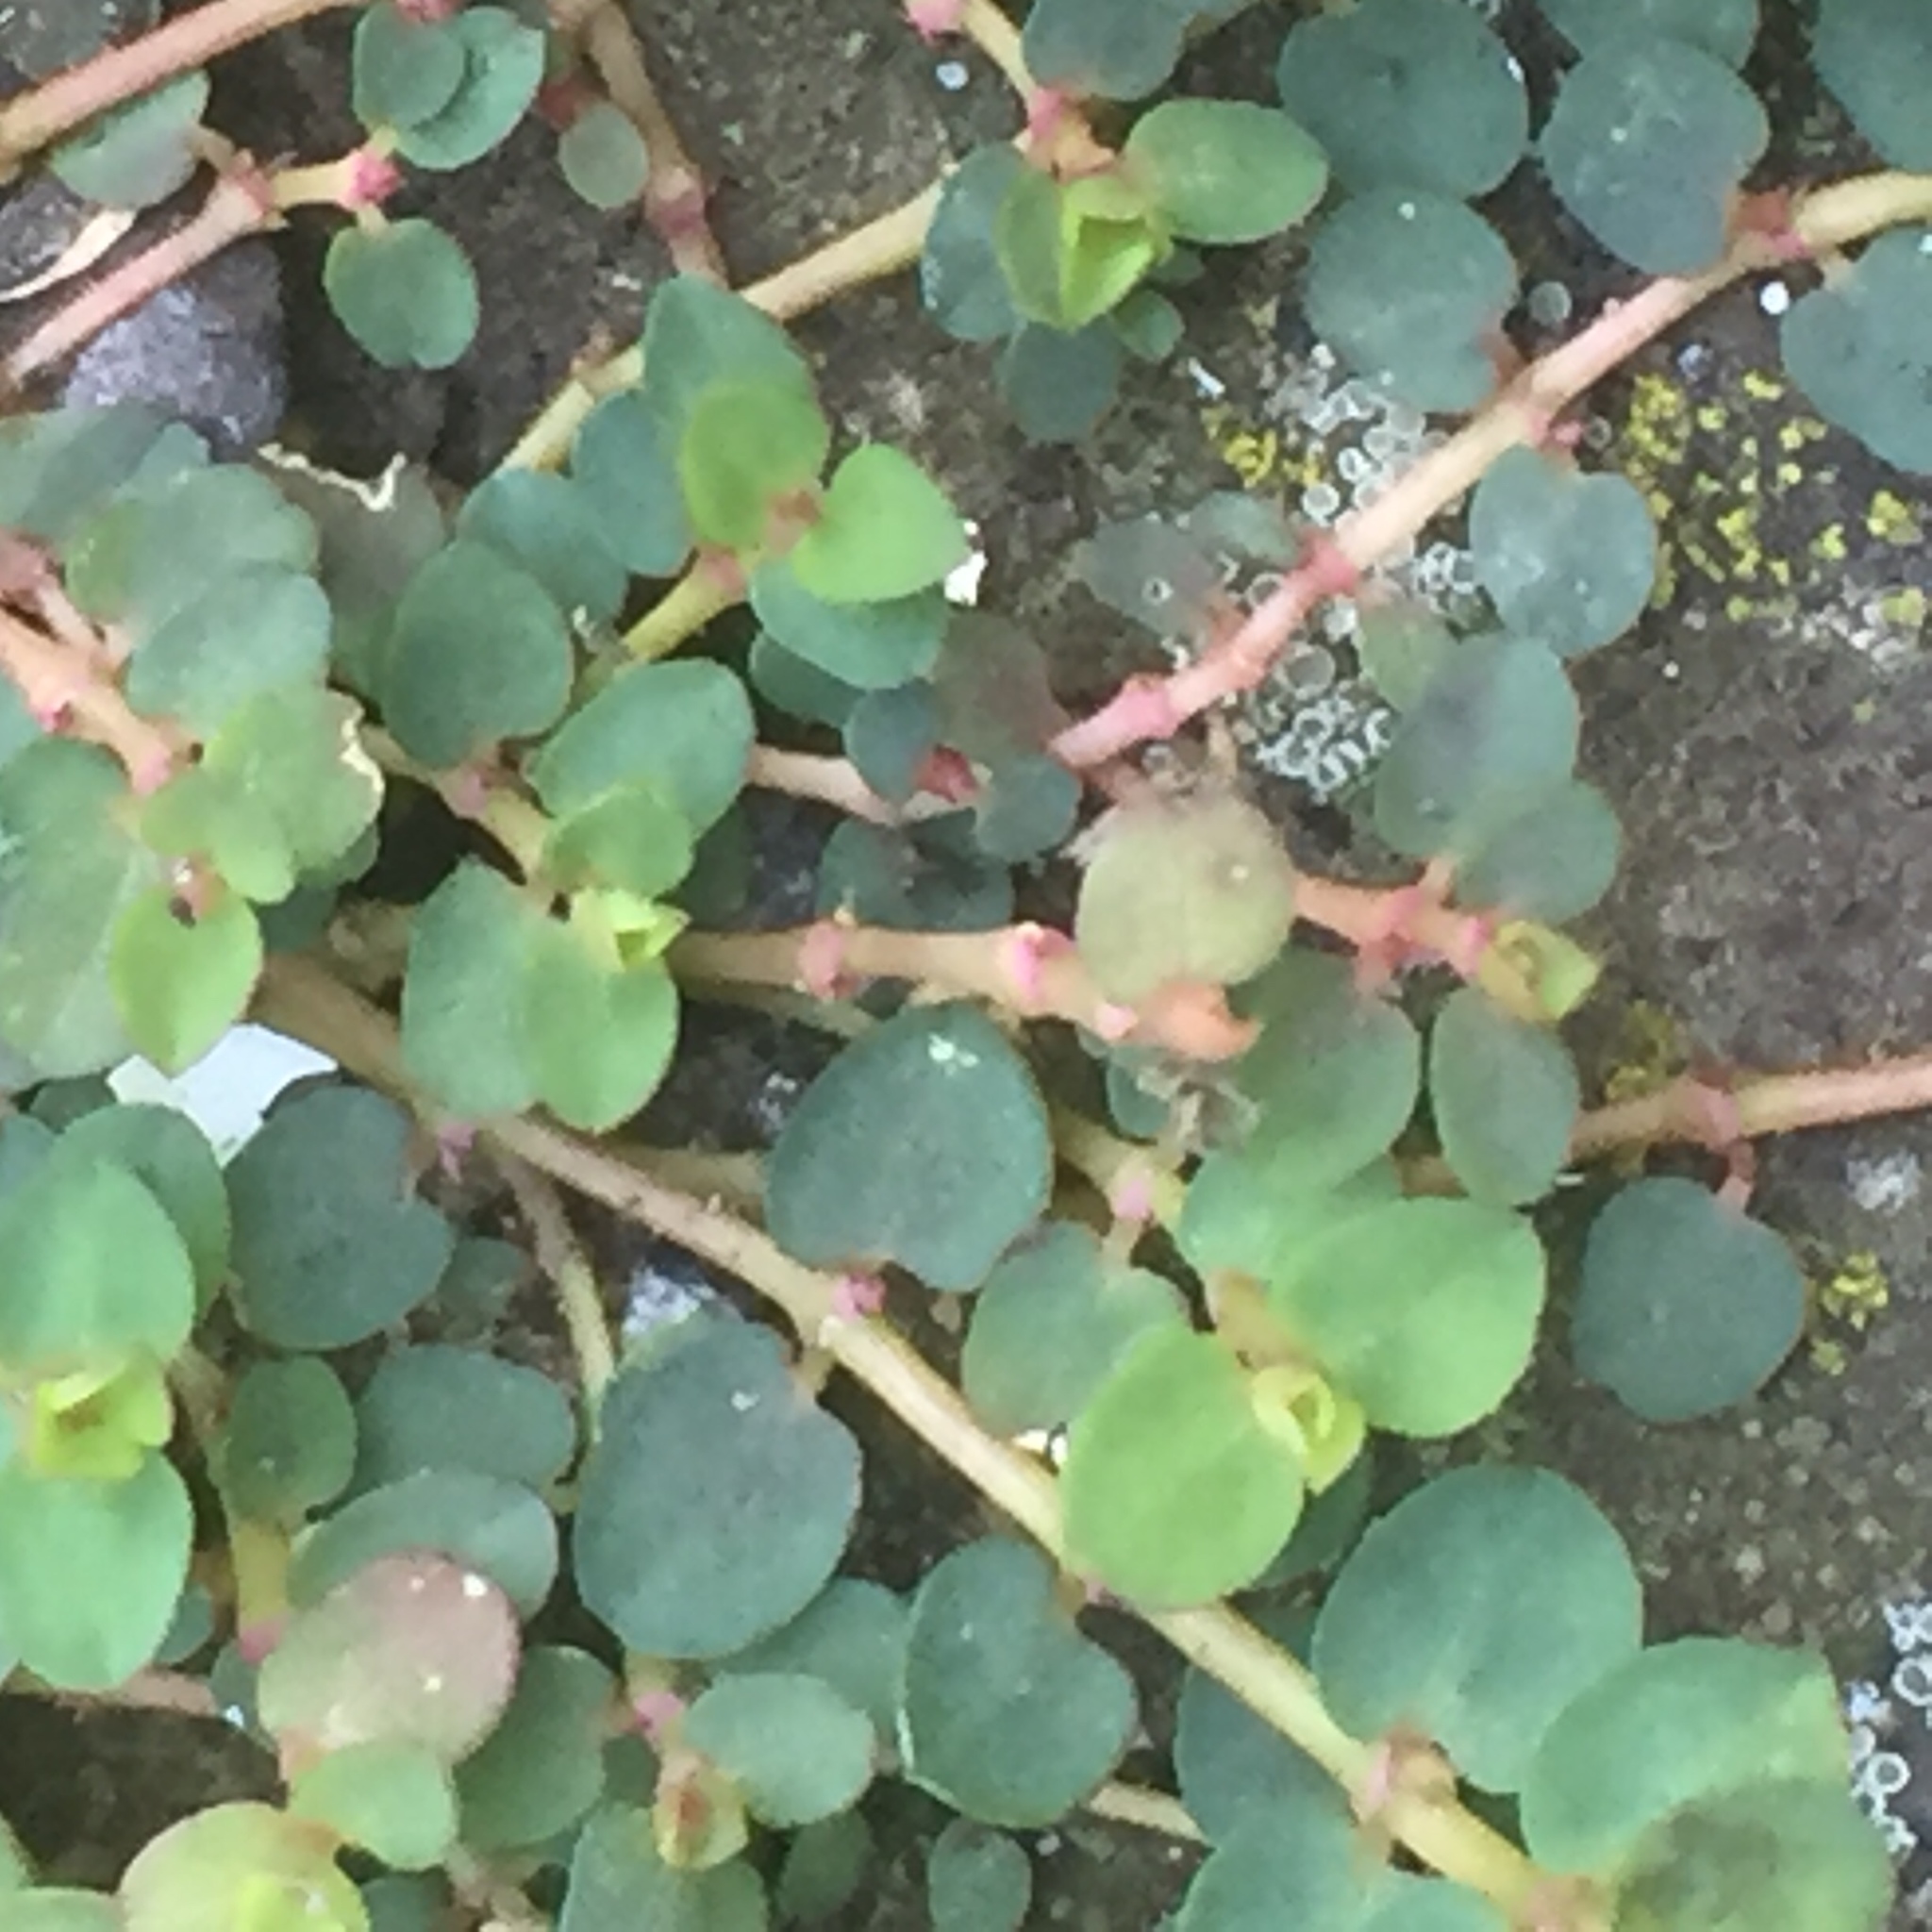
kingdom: Plantae
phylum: Tracheophyta
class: Magnoliopsida
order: Malpighiales
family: Euphorbiaceae
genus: Euphorbia
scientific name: Euphorbia serpens
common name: Matted sandmat
